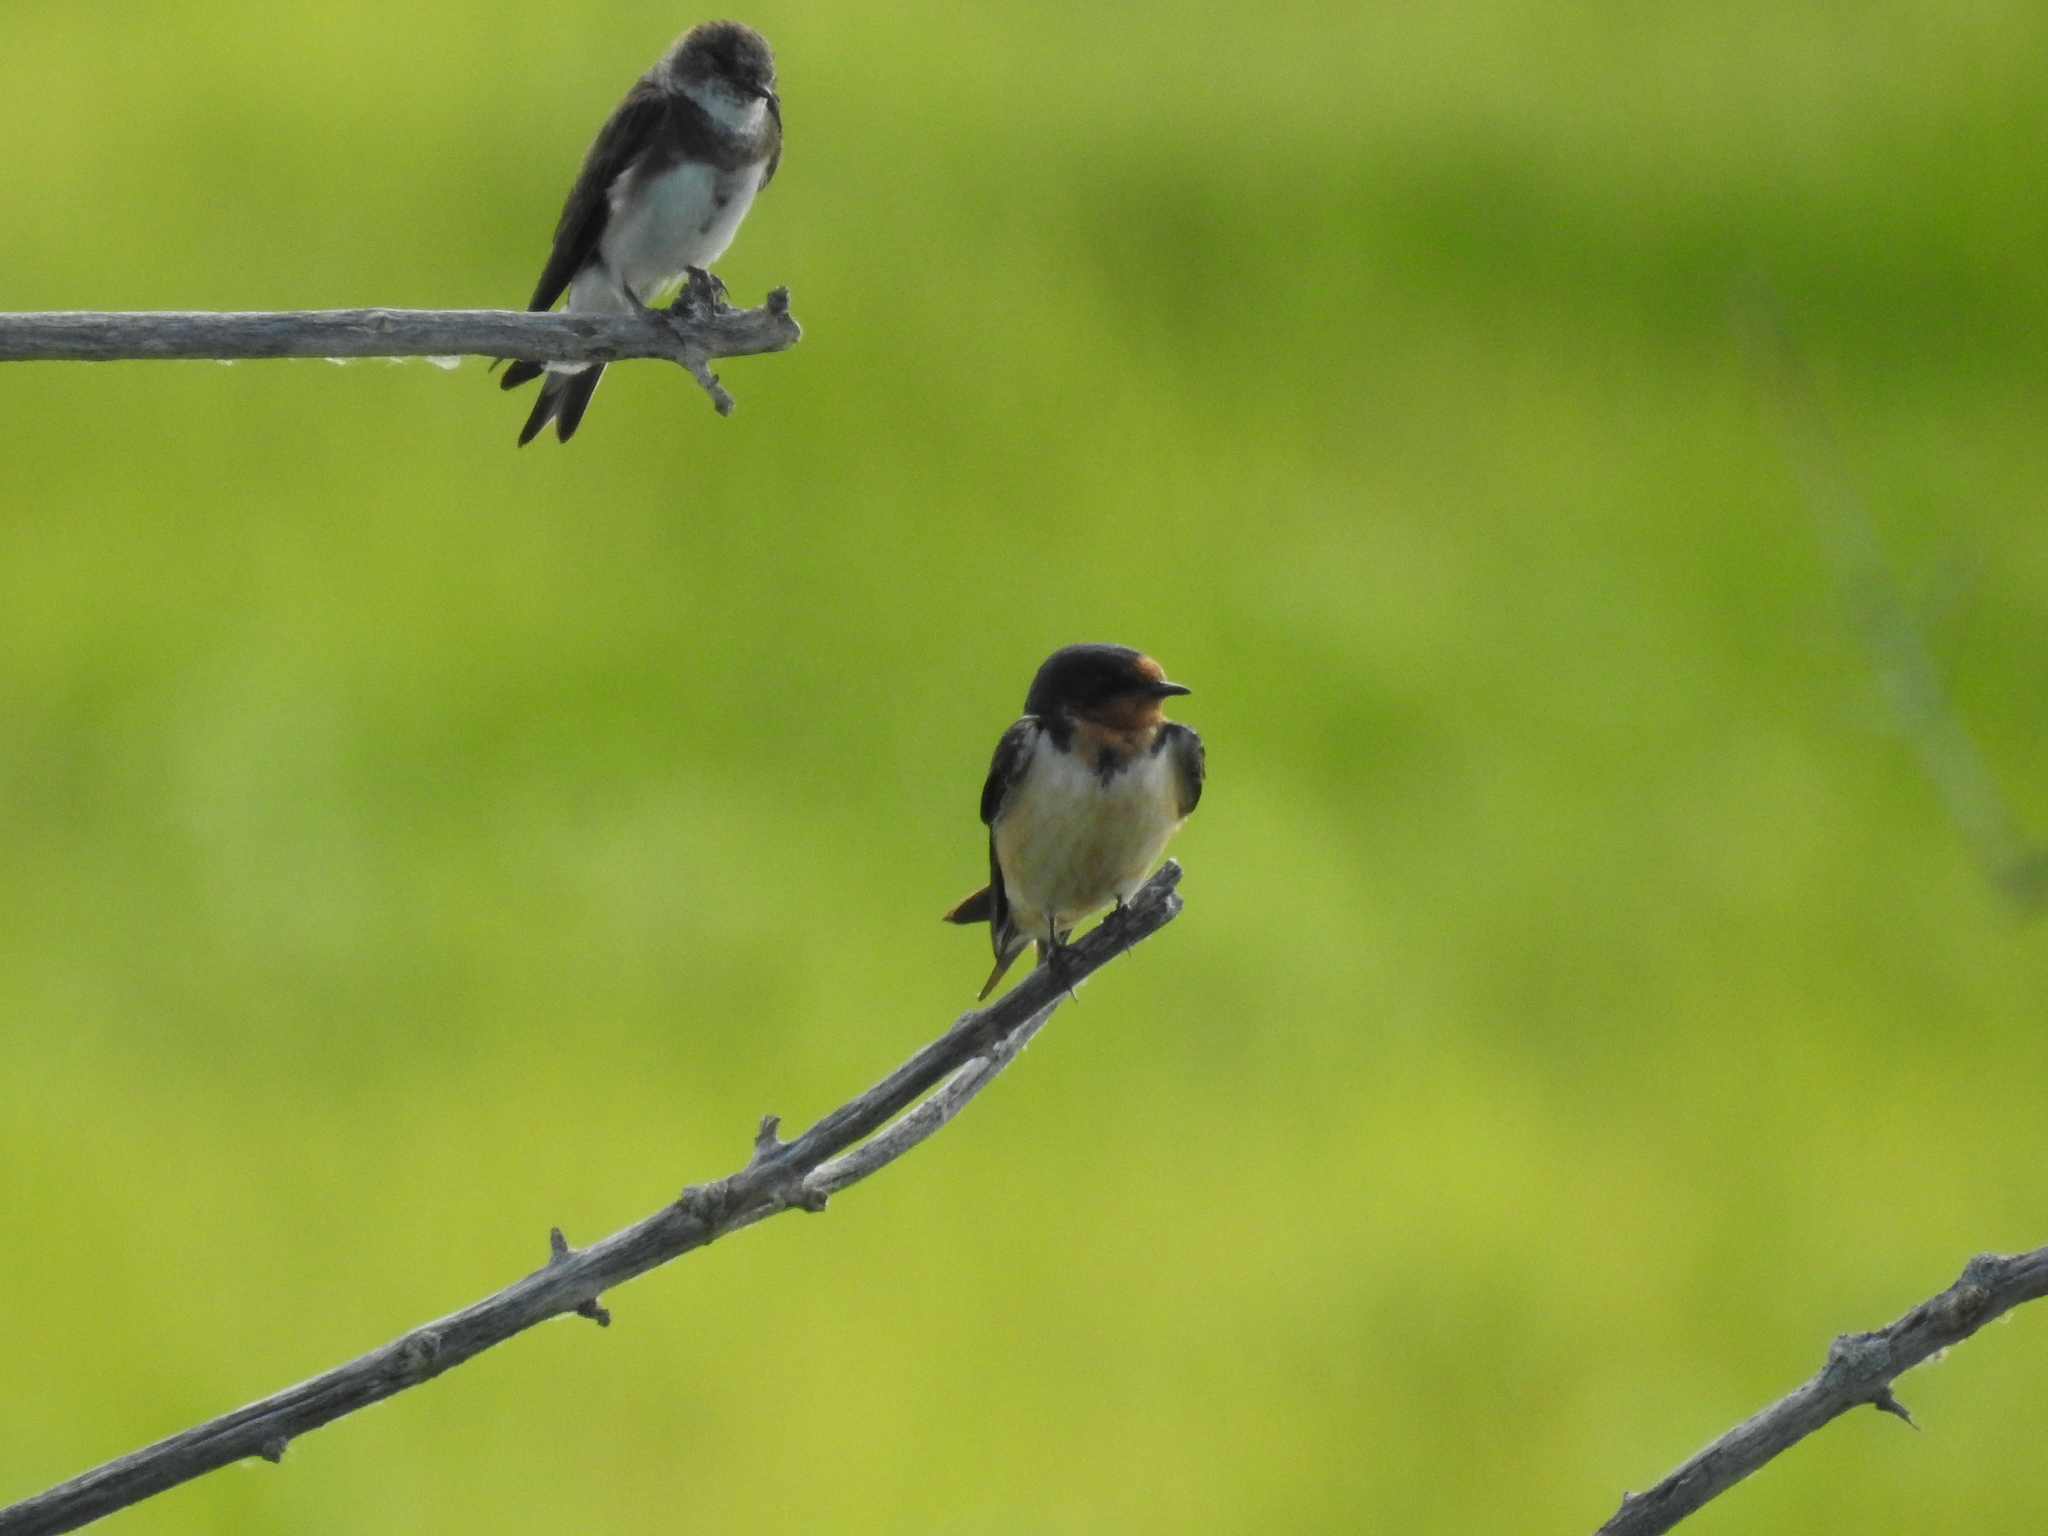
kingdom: Animalia
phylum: Chordata
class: Aves
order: Passeriformes
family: Hirundinidae
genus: Hirundo
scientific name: Hirundo rustica
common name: Barn swallow
